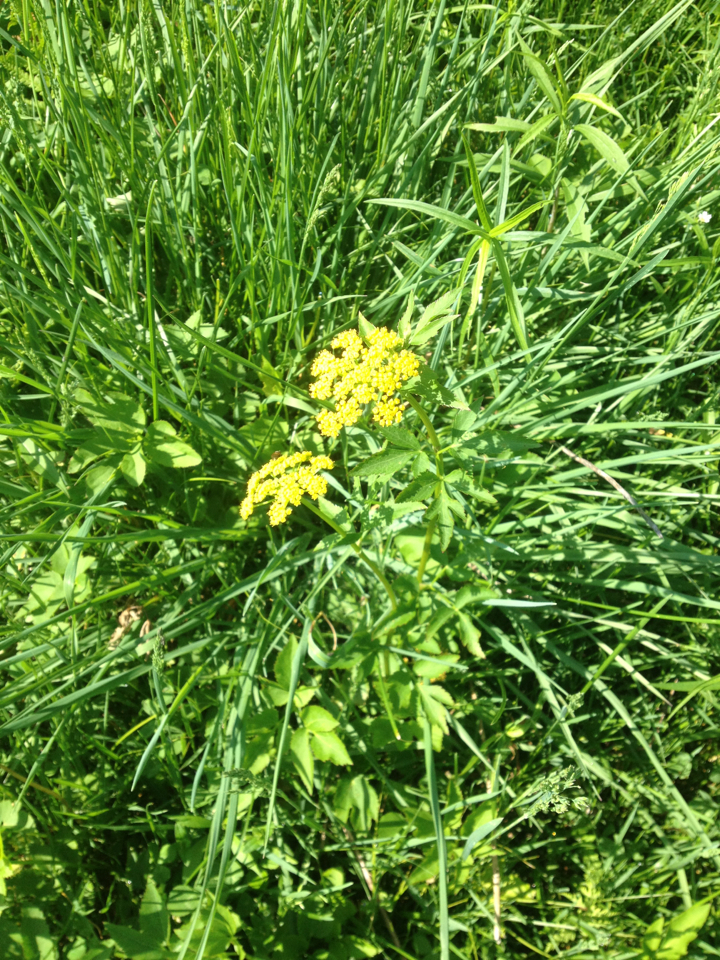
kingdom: Plantae
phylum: Tracheophyta
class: Magnoliopsida
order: Apiales
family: Apiaceae
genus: Zizia
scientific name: Zizia aurea
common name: Golden alexanders
